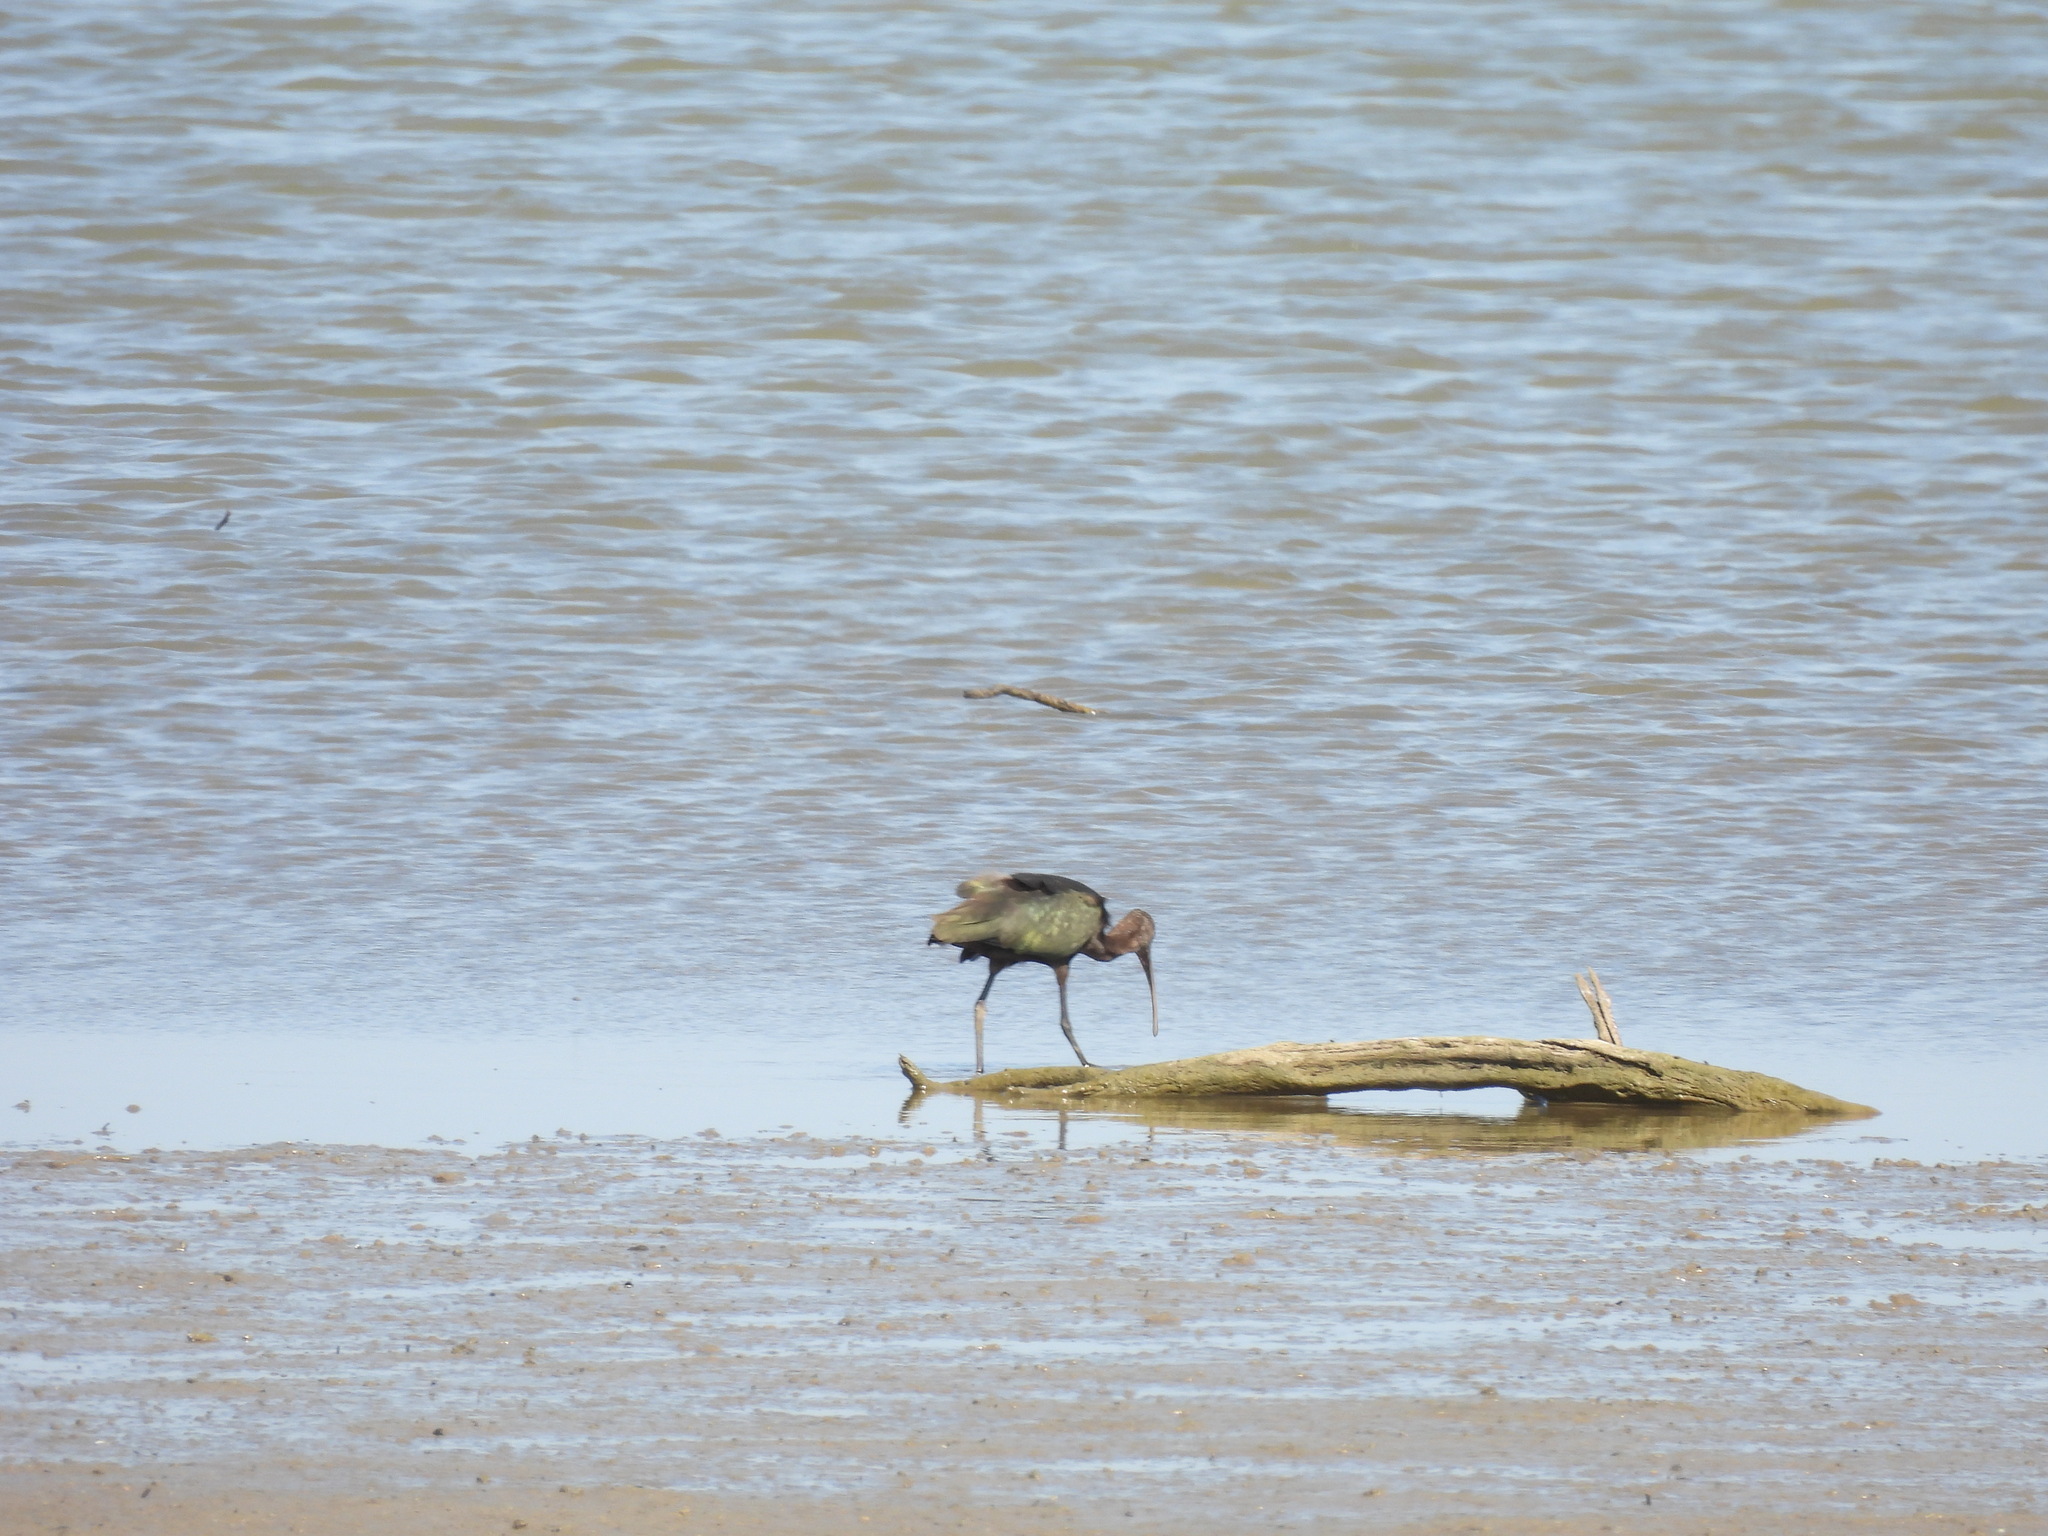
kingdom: Animalia
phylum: Chordata
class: Aves
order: Pelecaniformes
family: Threskiornithidae
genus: Plegadis
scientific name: Plegadis chihi
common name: White-faced ibis
